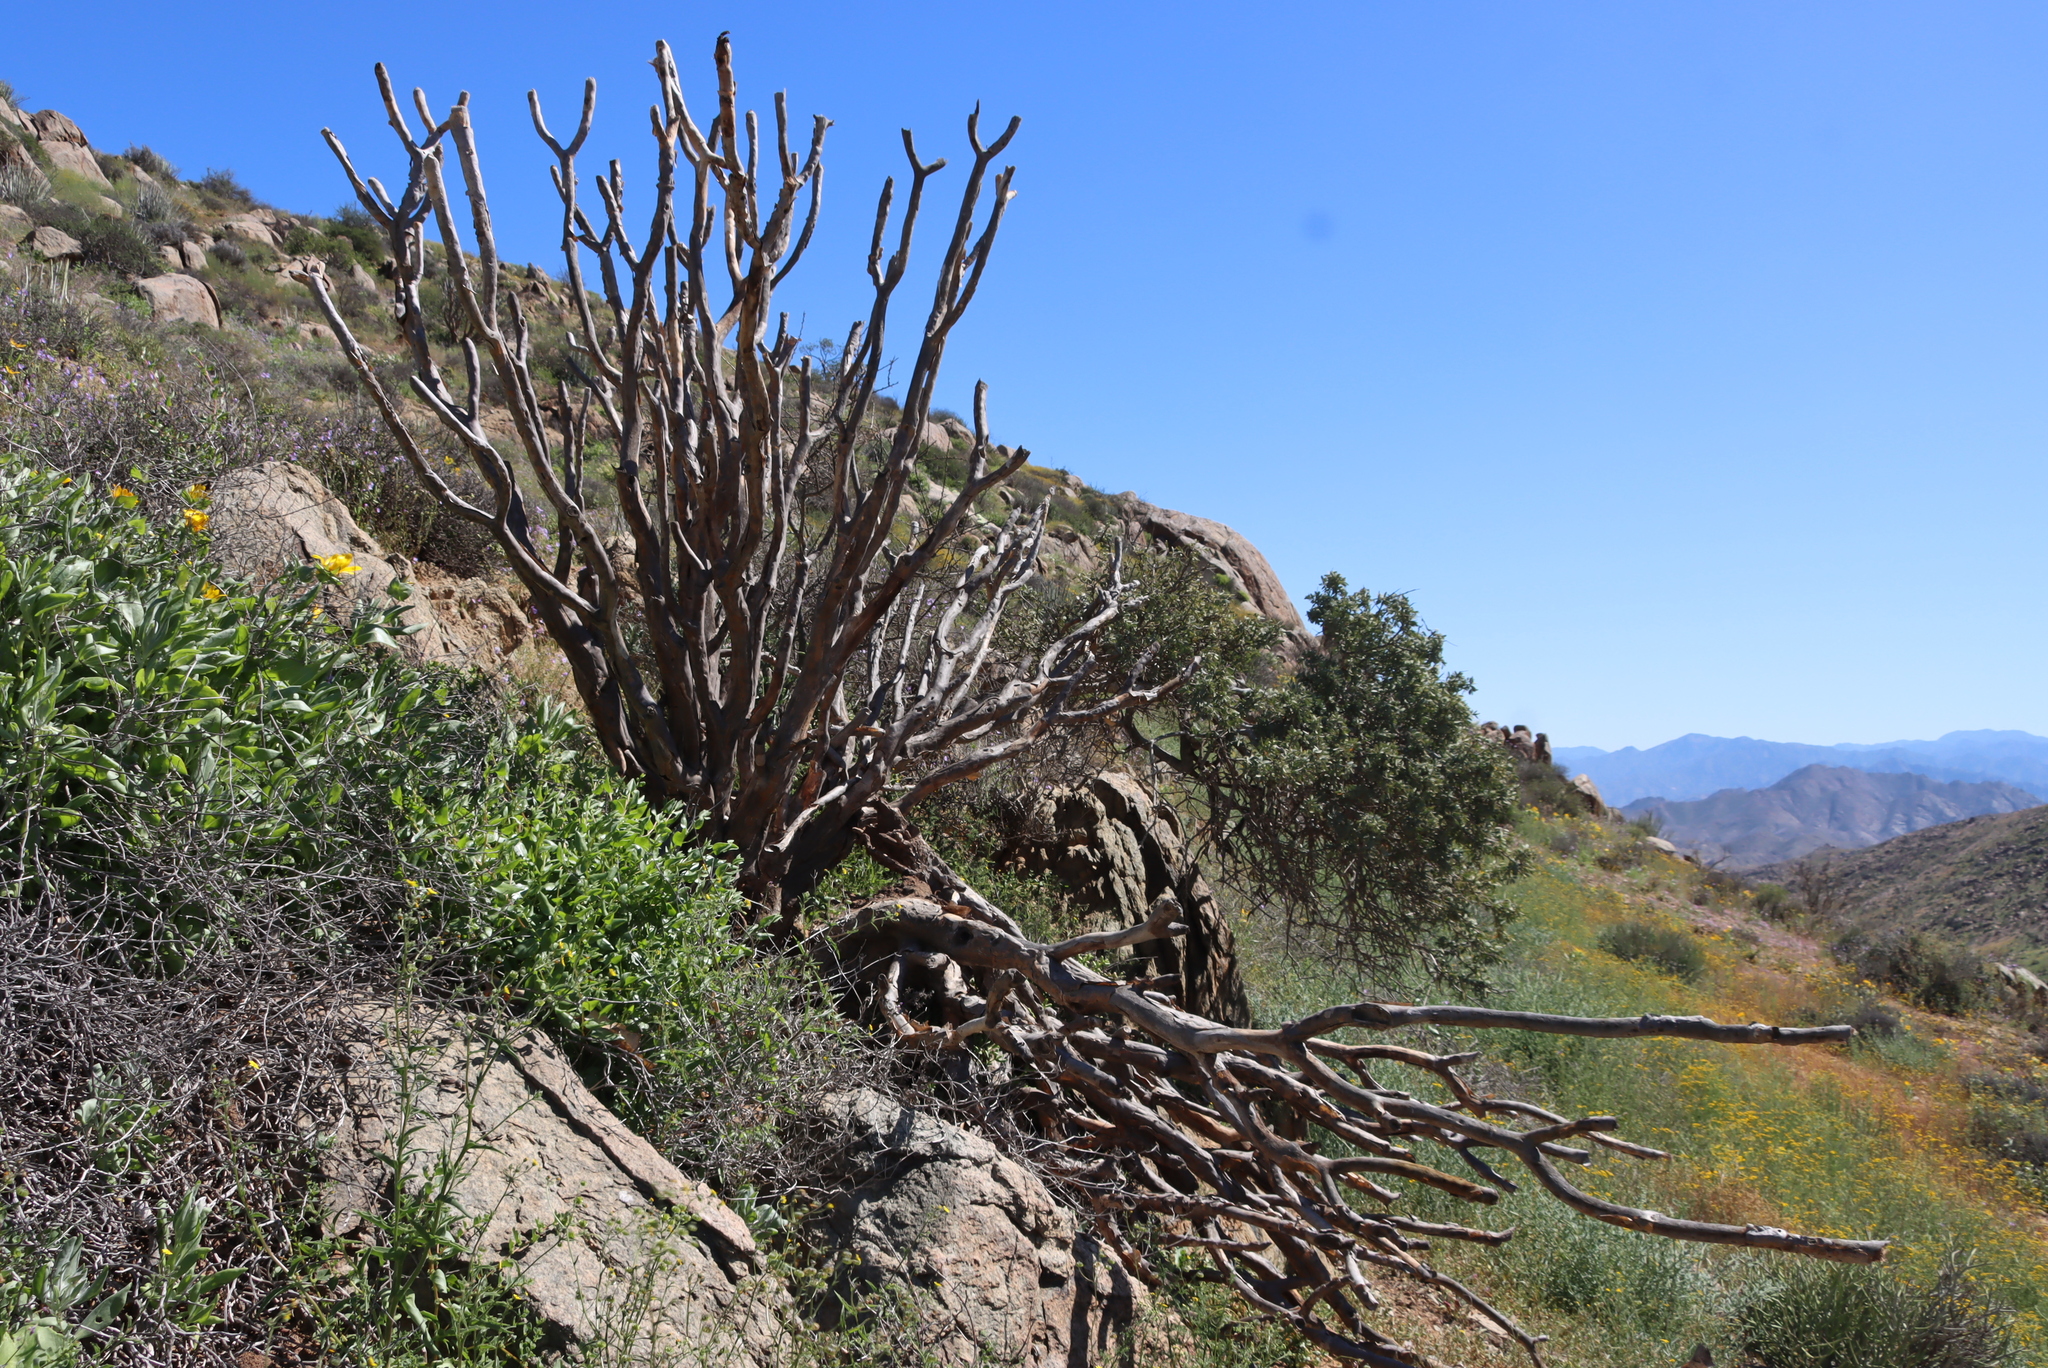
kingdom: Plantae
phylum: Tracheophyta
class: Liliopsida
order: Asparagales
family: Asphodelaceae
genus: Aloidendron
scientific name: Aloidendron dichotomum
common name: Quiver tree
